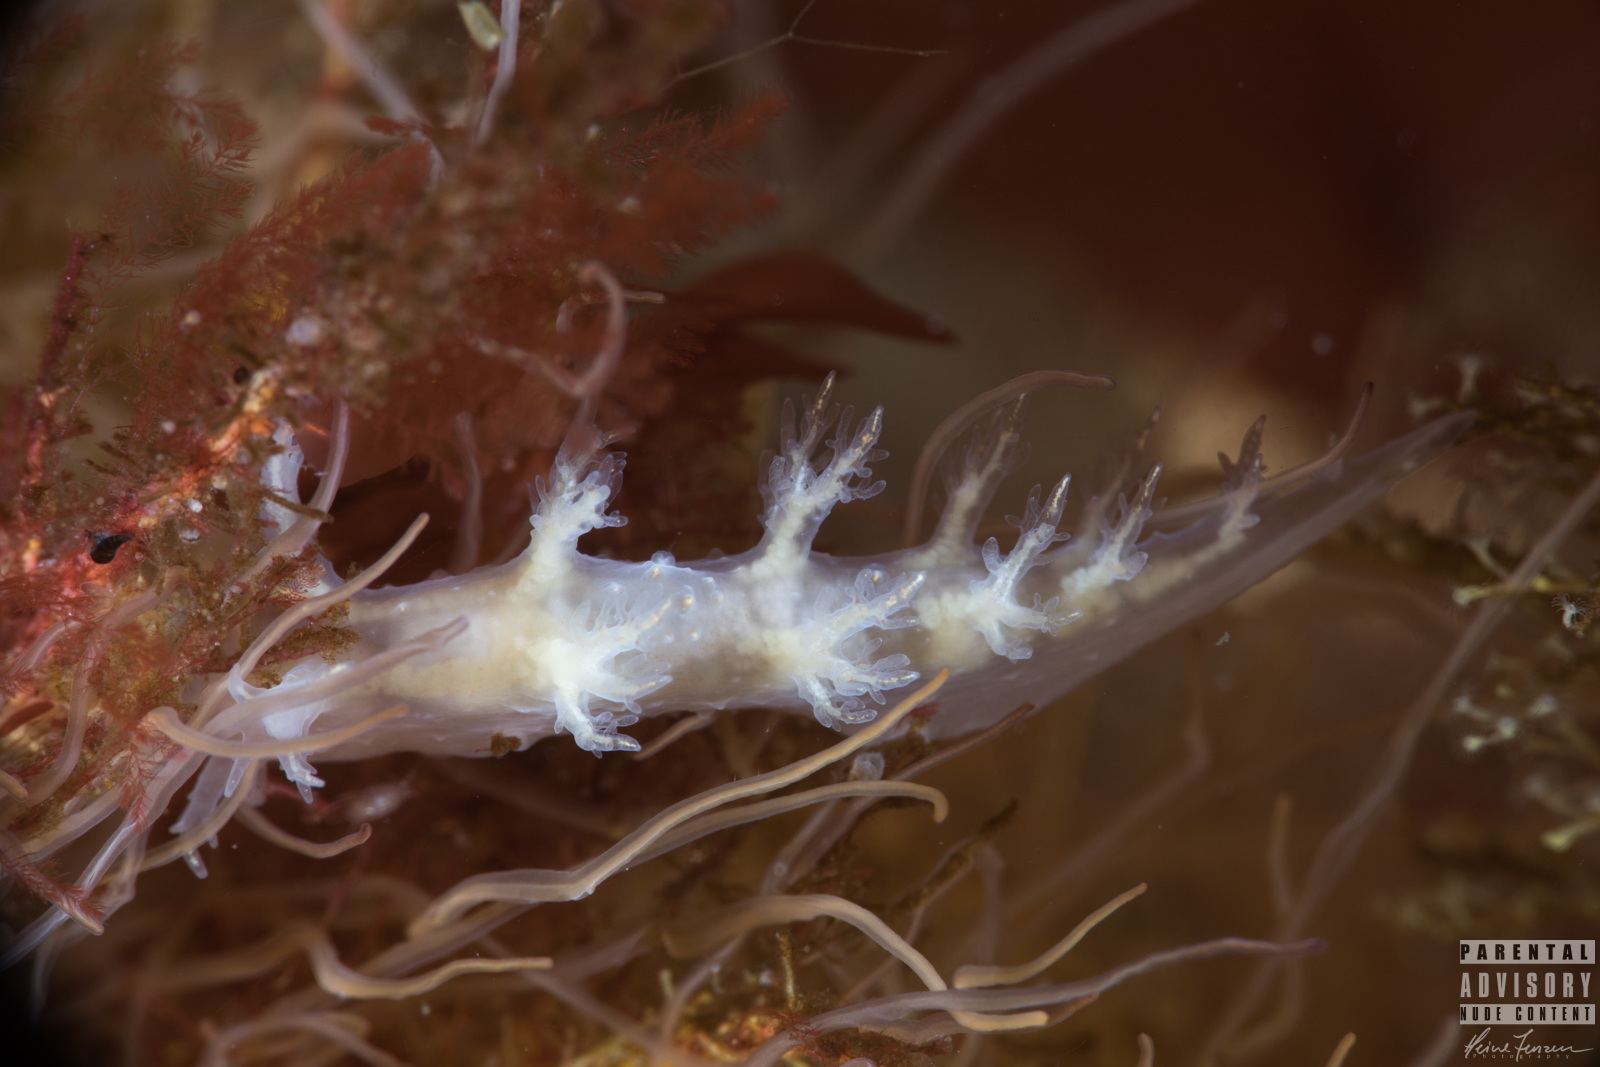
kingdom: Animalia
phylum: Mollusca
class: Gastropoda
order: Nudibranchia
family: Dendronotidae
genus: Dendronotus
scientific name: Dendronotus frondosus
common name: Bushy-backed nudibranch
